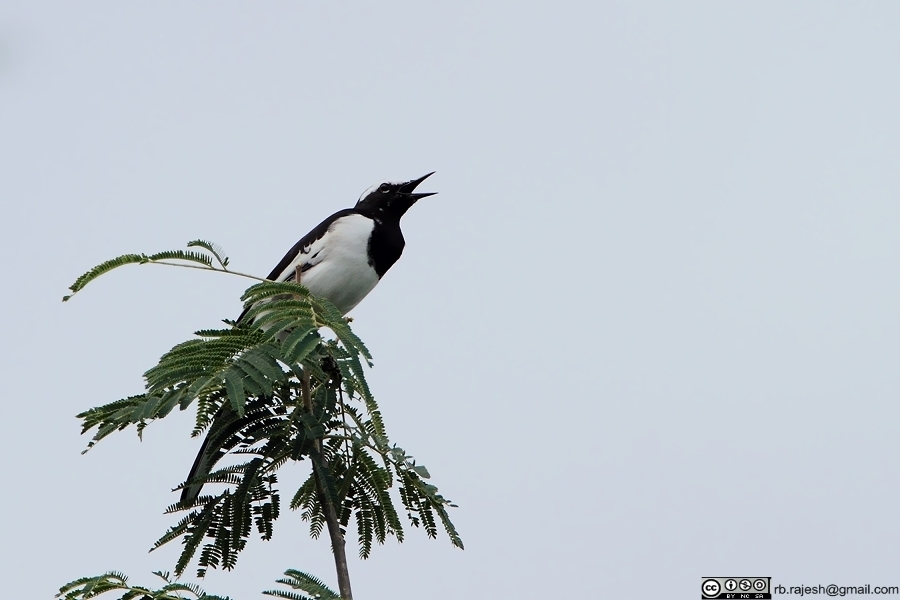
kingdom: Animalia
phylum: Chordata
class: Aves
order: Passeriformes
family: Motacillidae
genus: Motacilla
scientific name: Motacilla maderaspatensis
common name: White-browed wagtail
